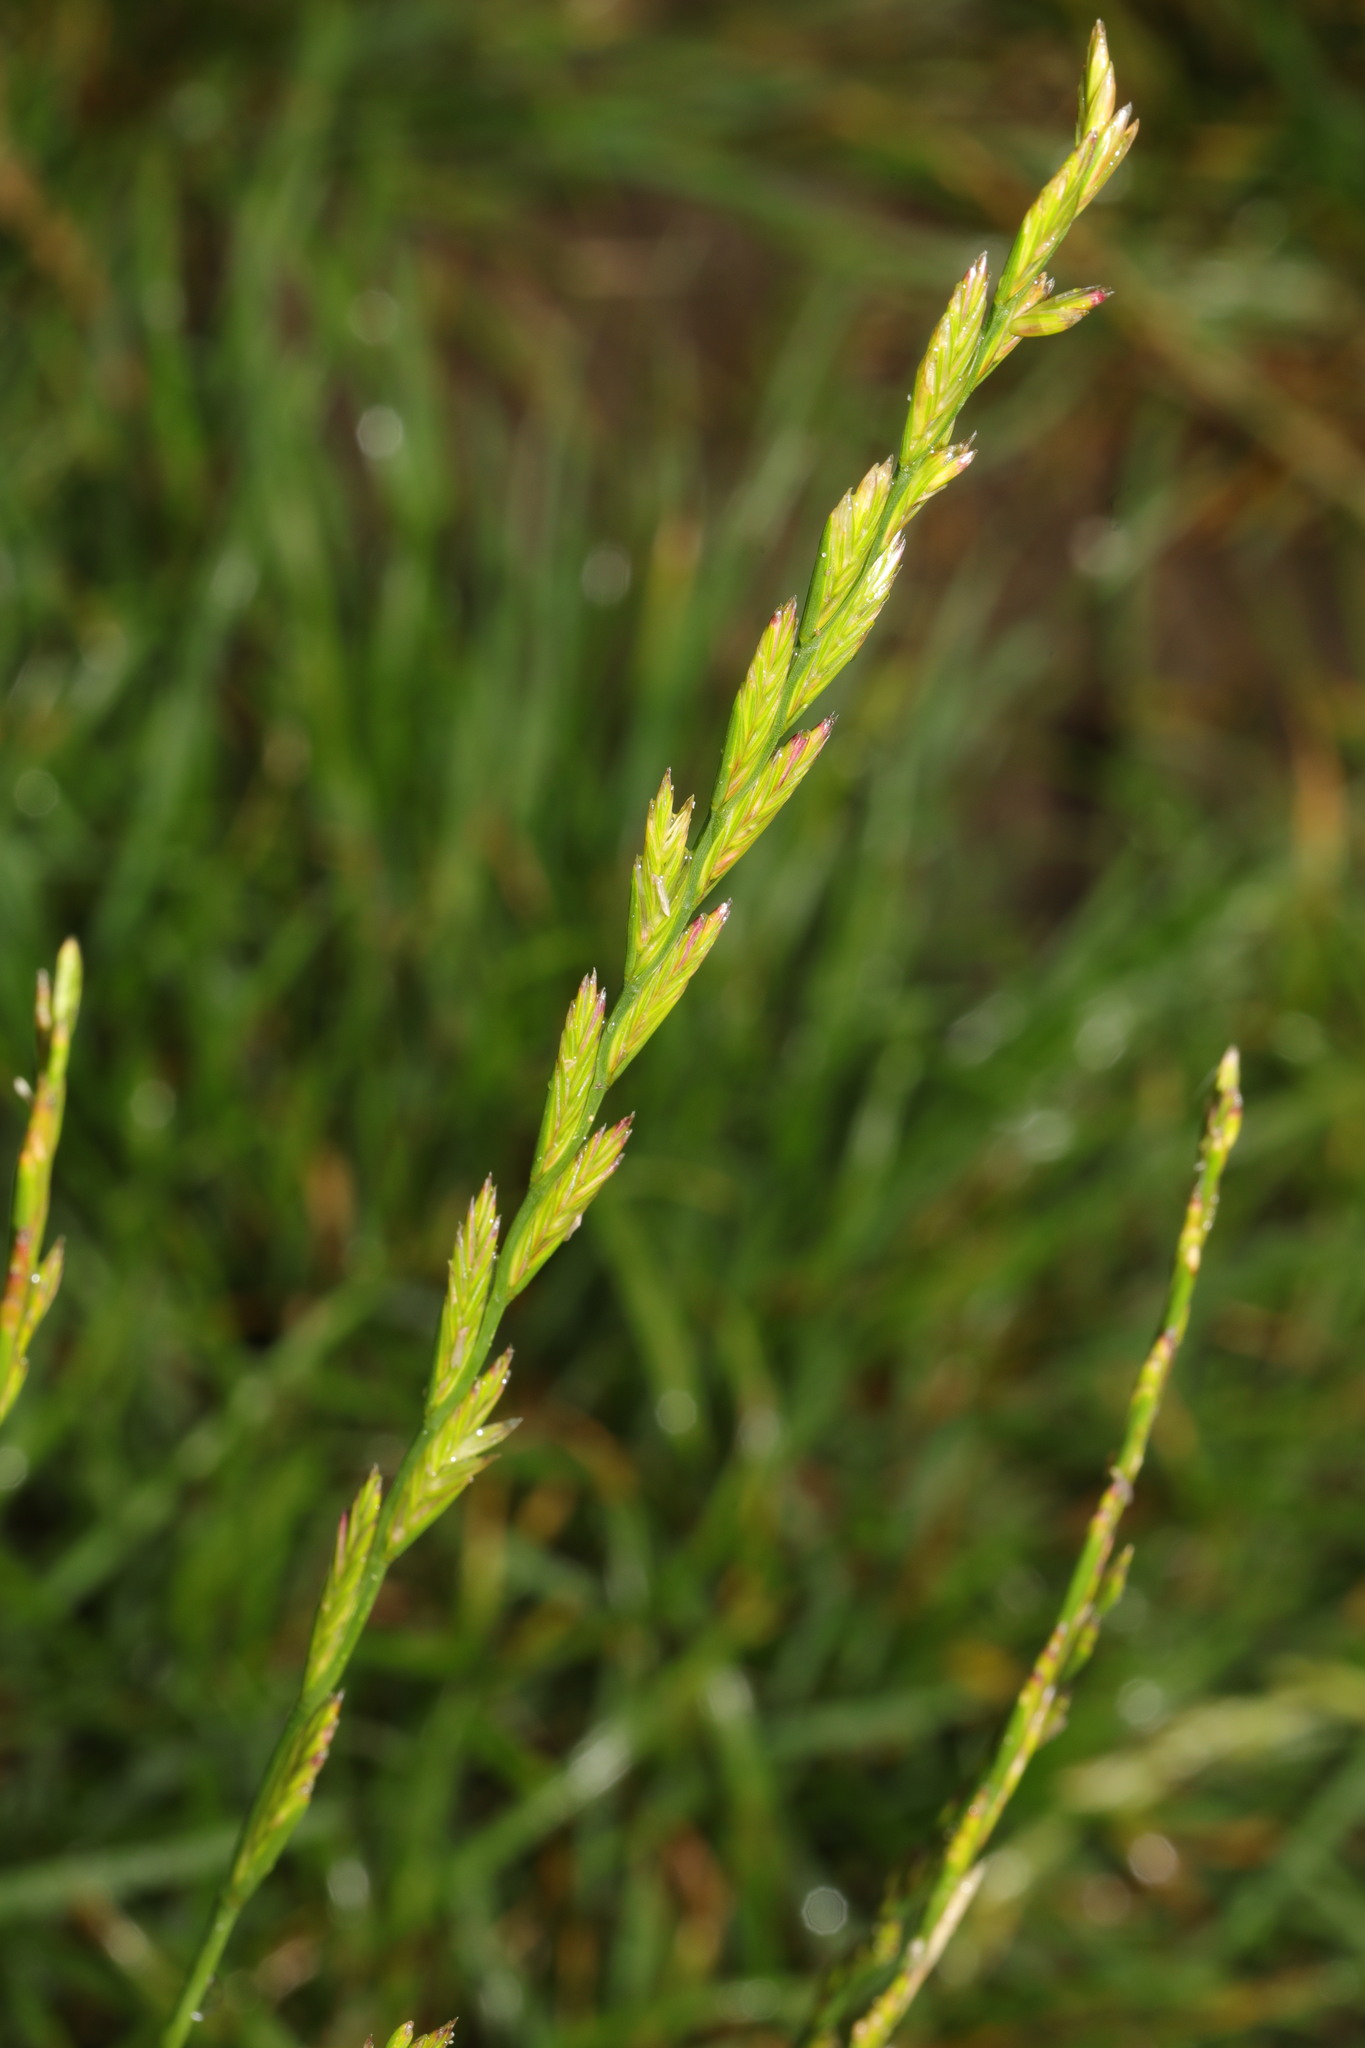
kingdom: Plantae
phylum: Tracheophyta
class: Liliopsida
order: Poales
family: Poaceae
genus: Lolium
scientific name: Lolium perenne
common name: Perennial ryegrass
